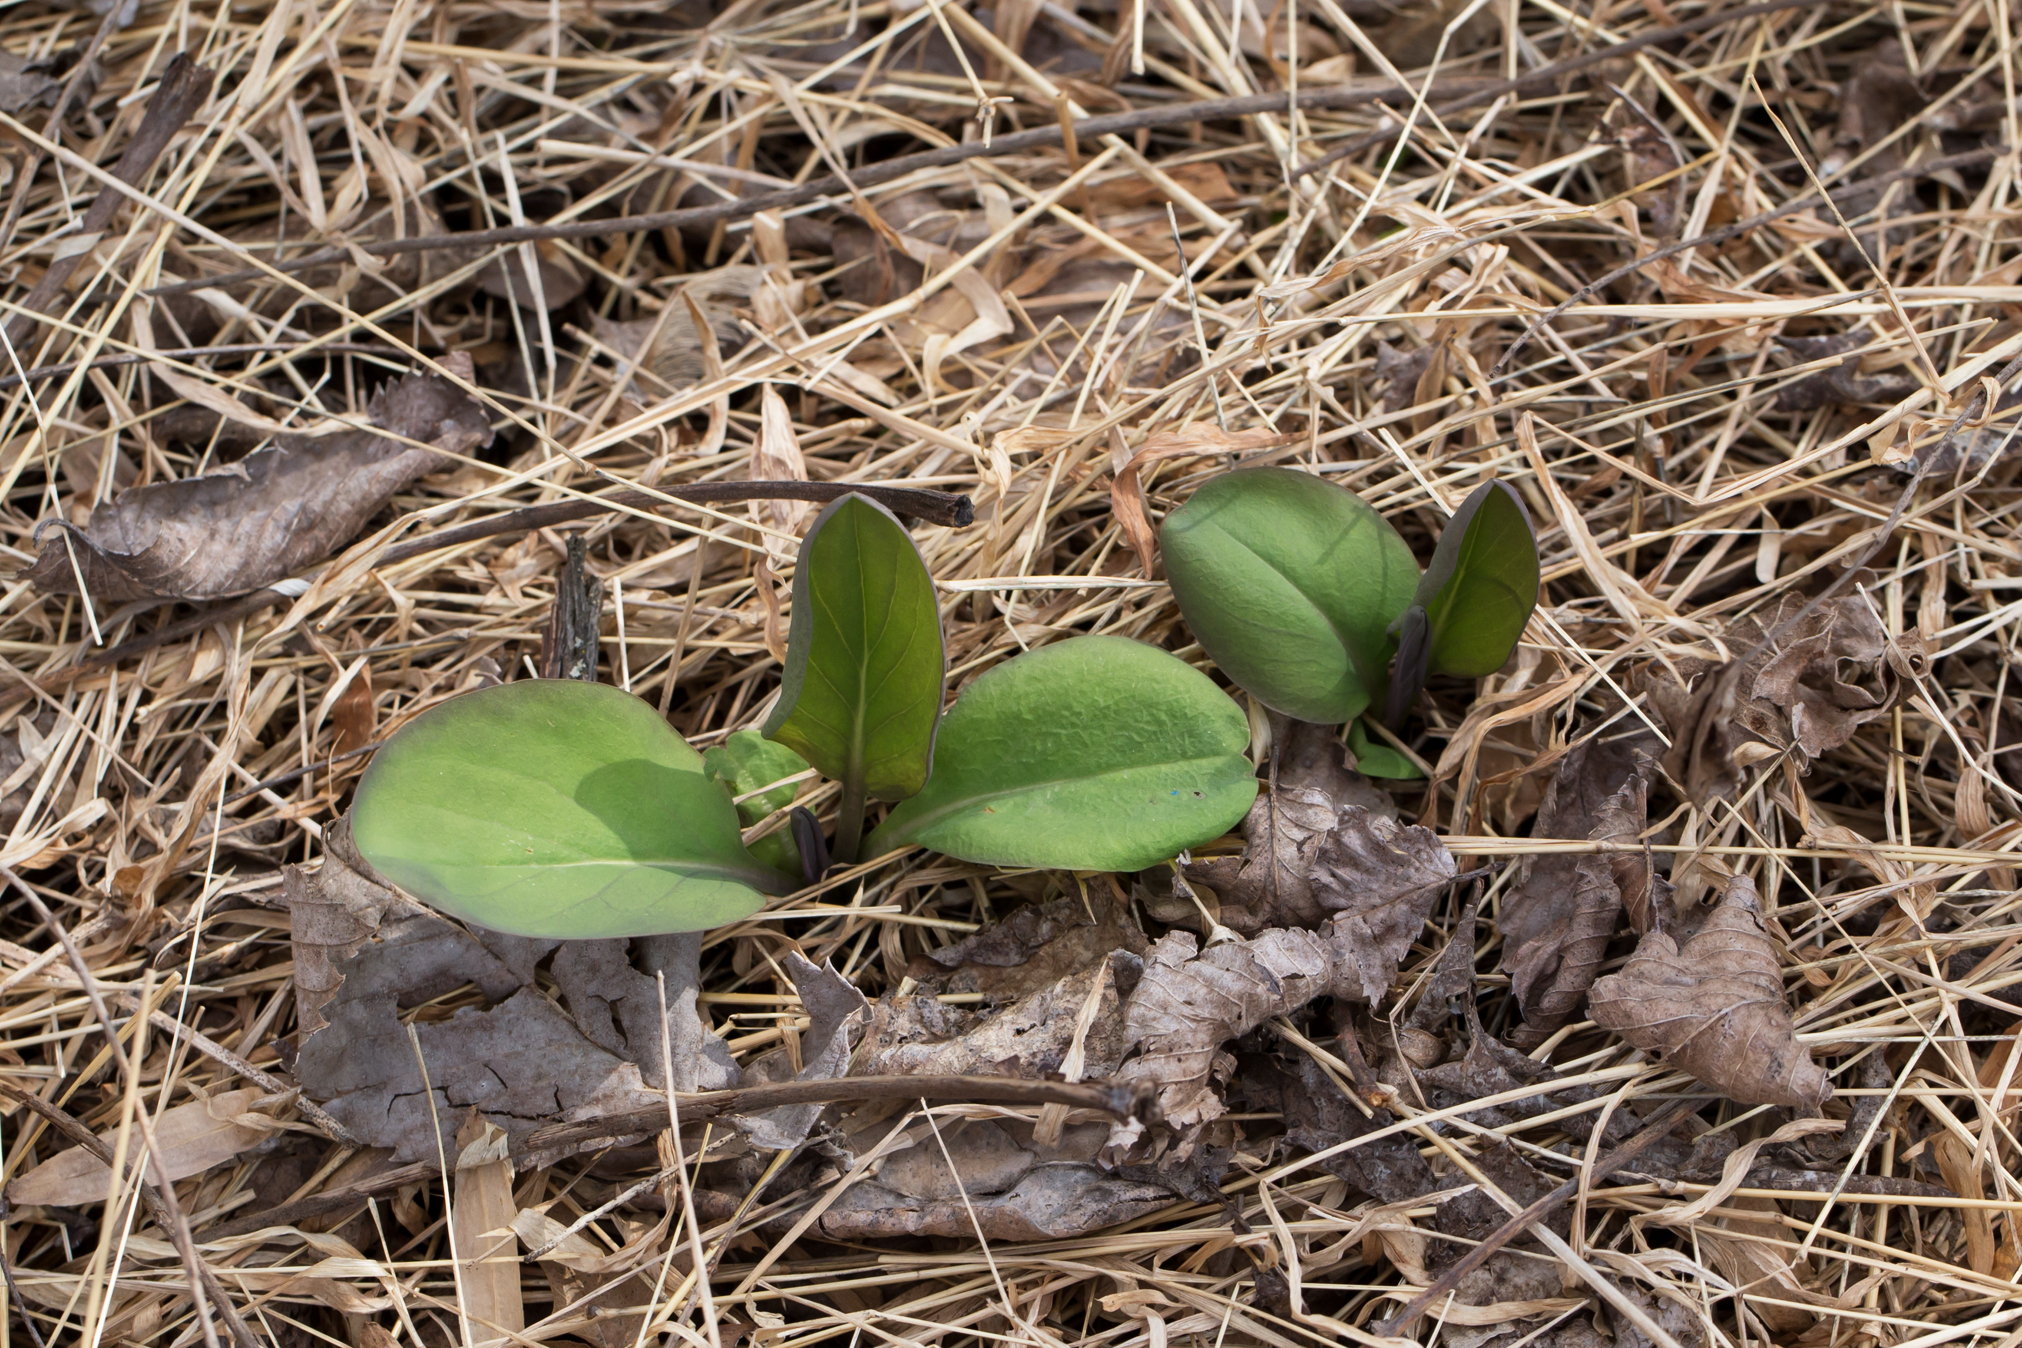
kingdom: Plantae
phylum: Tracheophyta
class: Magnoliopsida
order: Boraginales
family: Boraginaceae
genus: Mertensia
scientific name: Mertensia virginica
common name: Virginia bluebells
